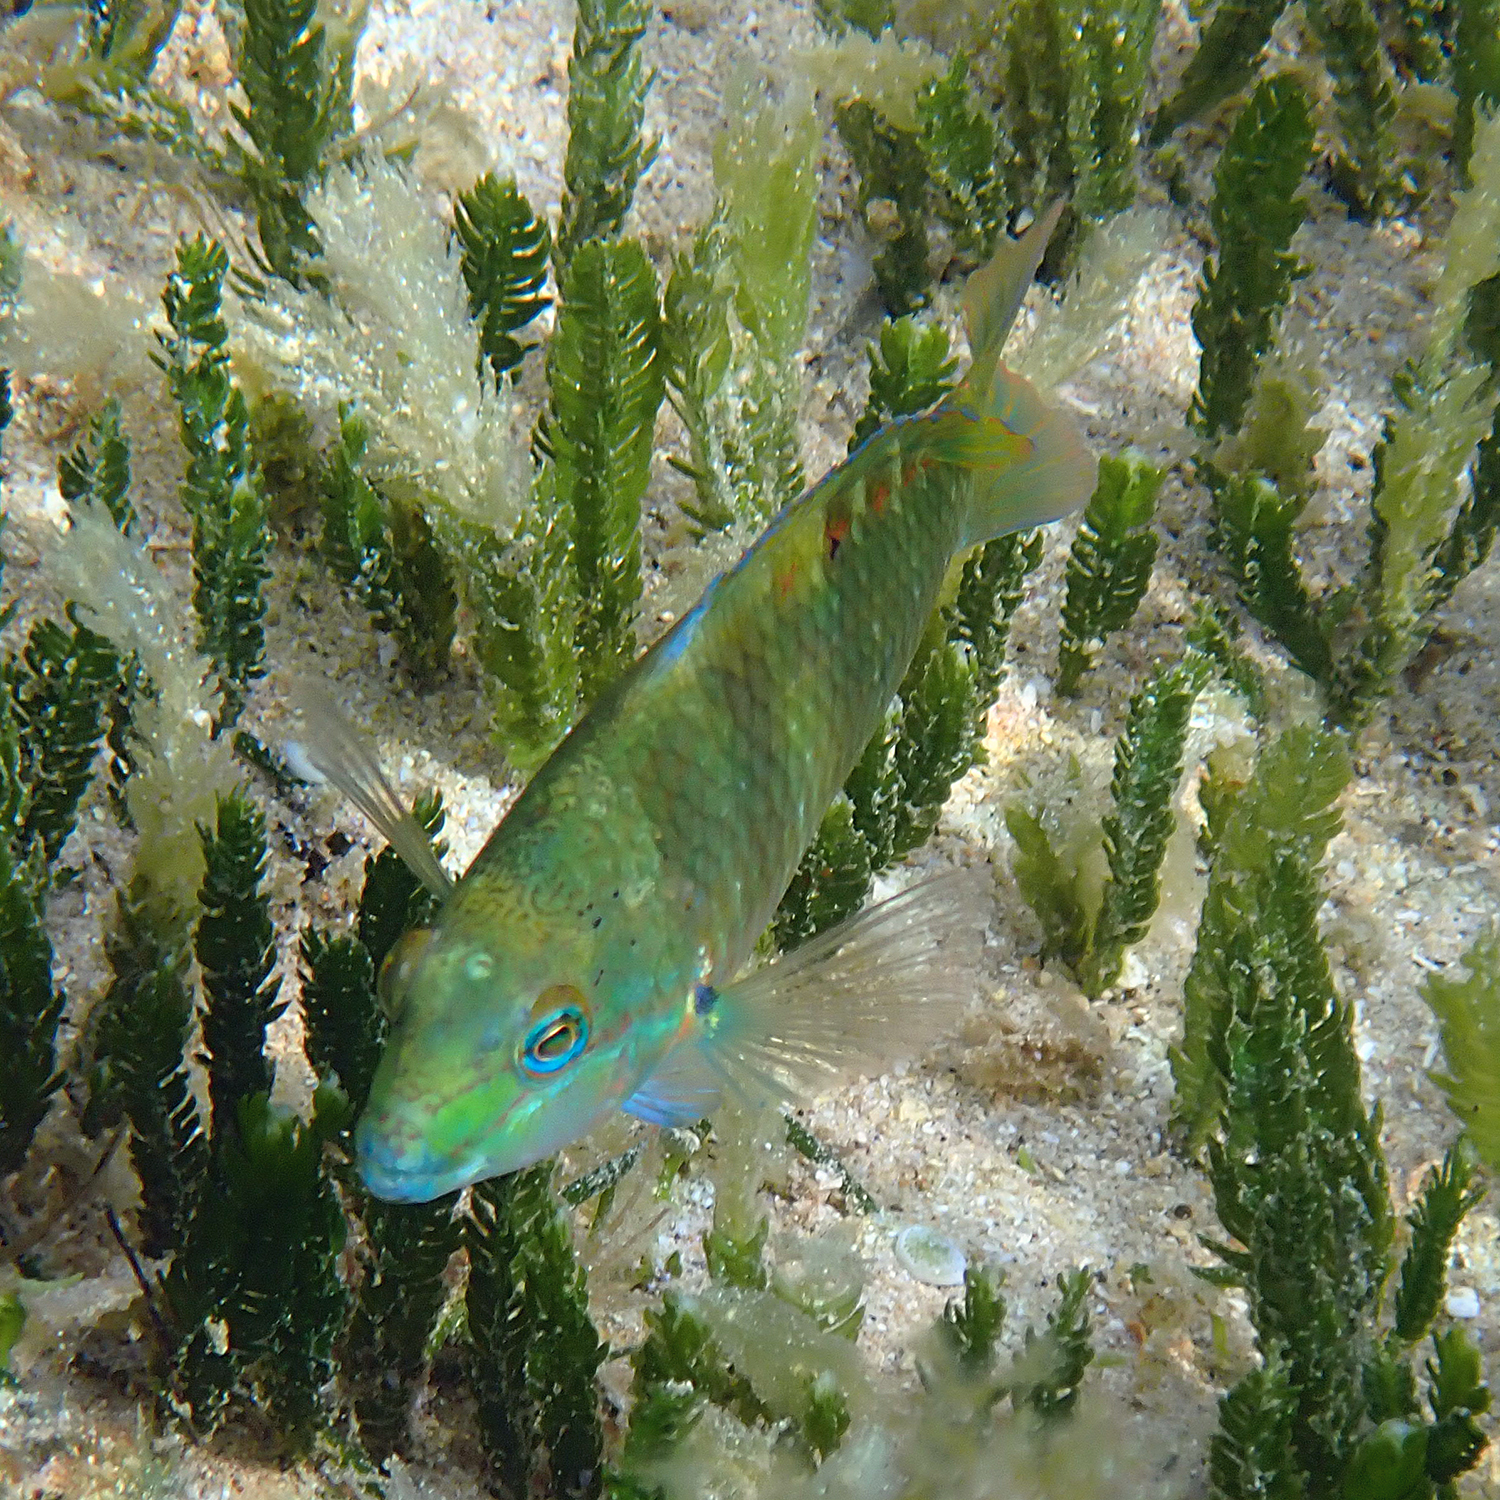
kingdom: Animalia
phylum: Chordata
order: Perciformes
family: Labridae
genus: Pseudolabrus
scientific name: Pseudolabrus luculentus
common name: Luculentus wrasse
